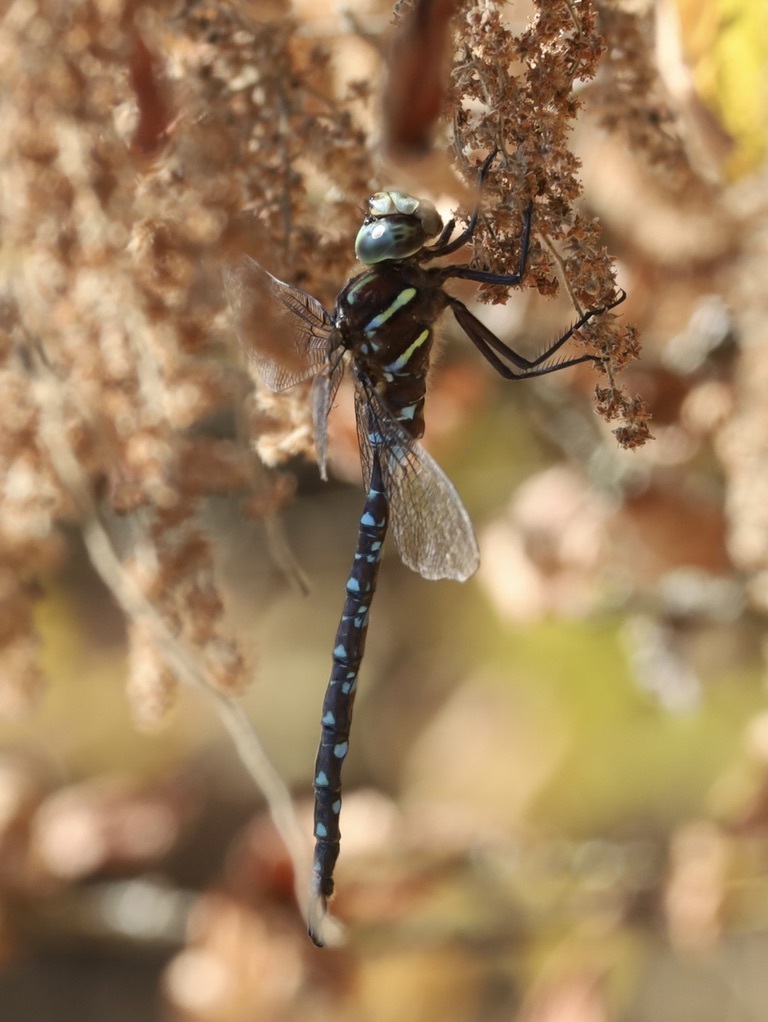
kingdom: Animalia
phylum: Arthropoda
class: Insecta
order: Odonata
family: Aeshnidae
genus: Aeshna
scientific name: Aeshna umbrosa
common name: Shadow darner
